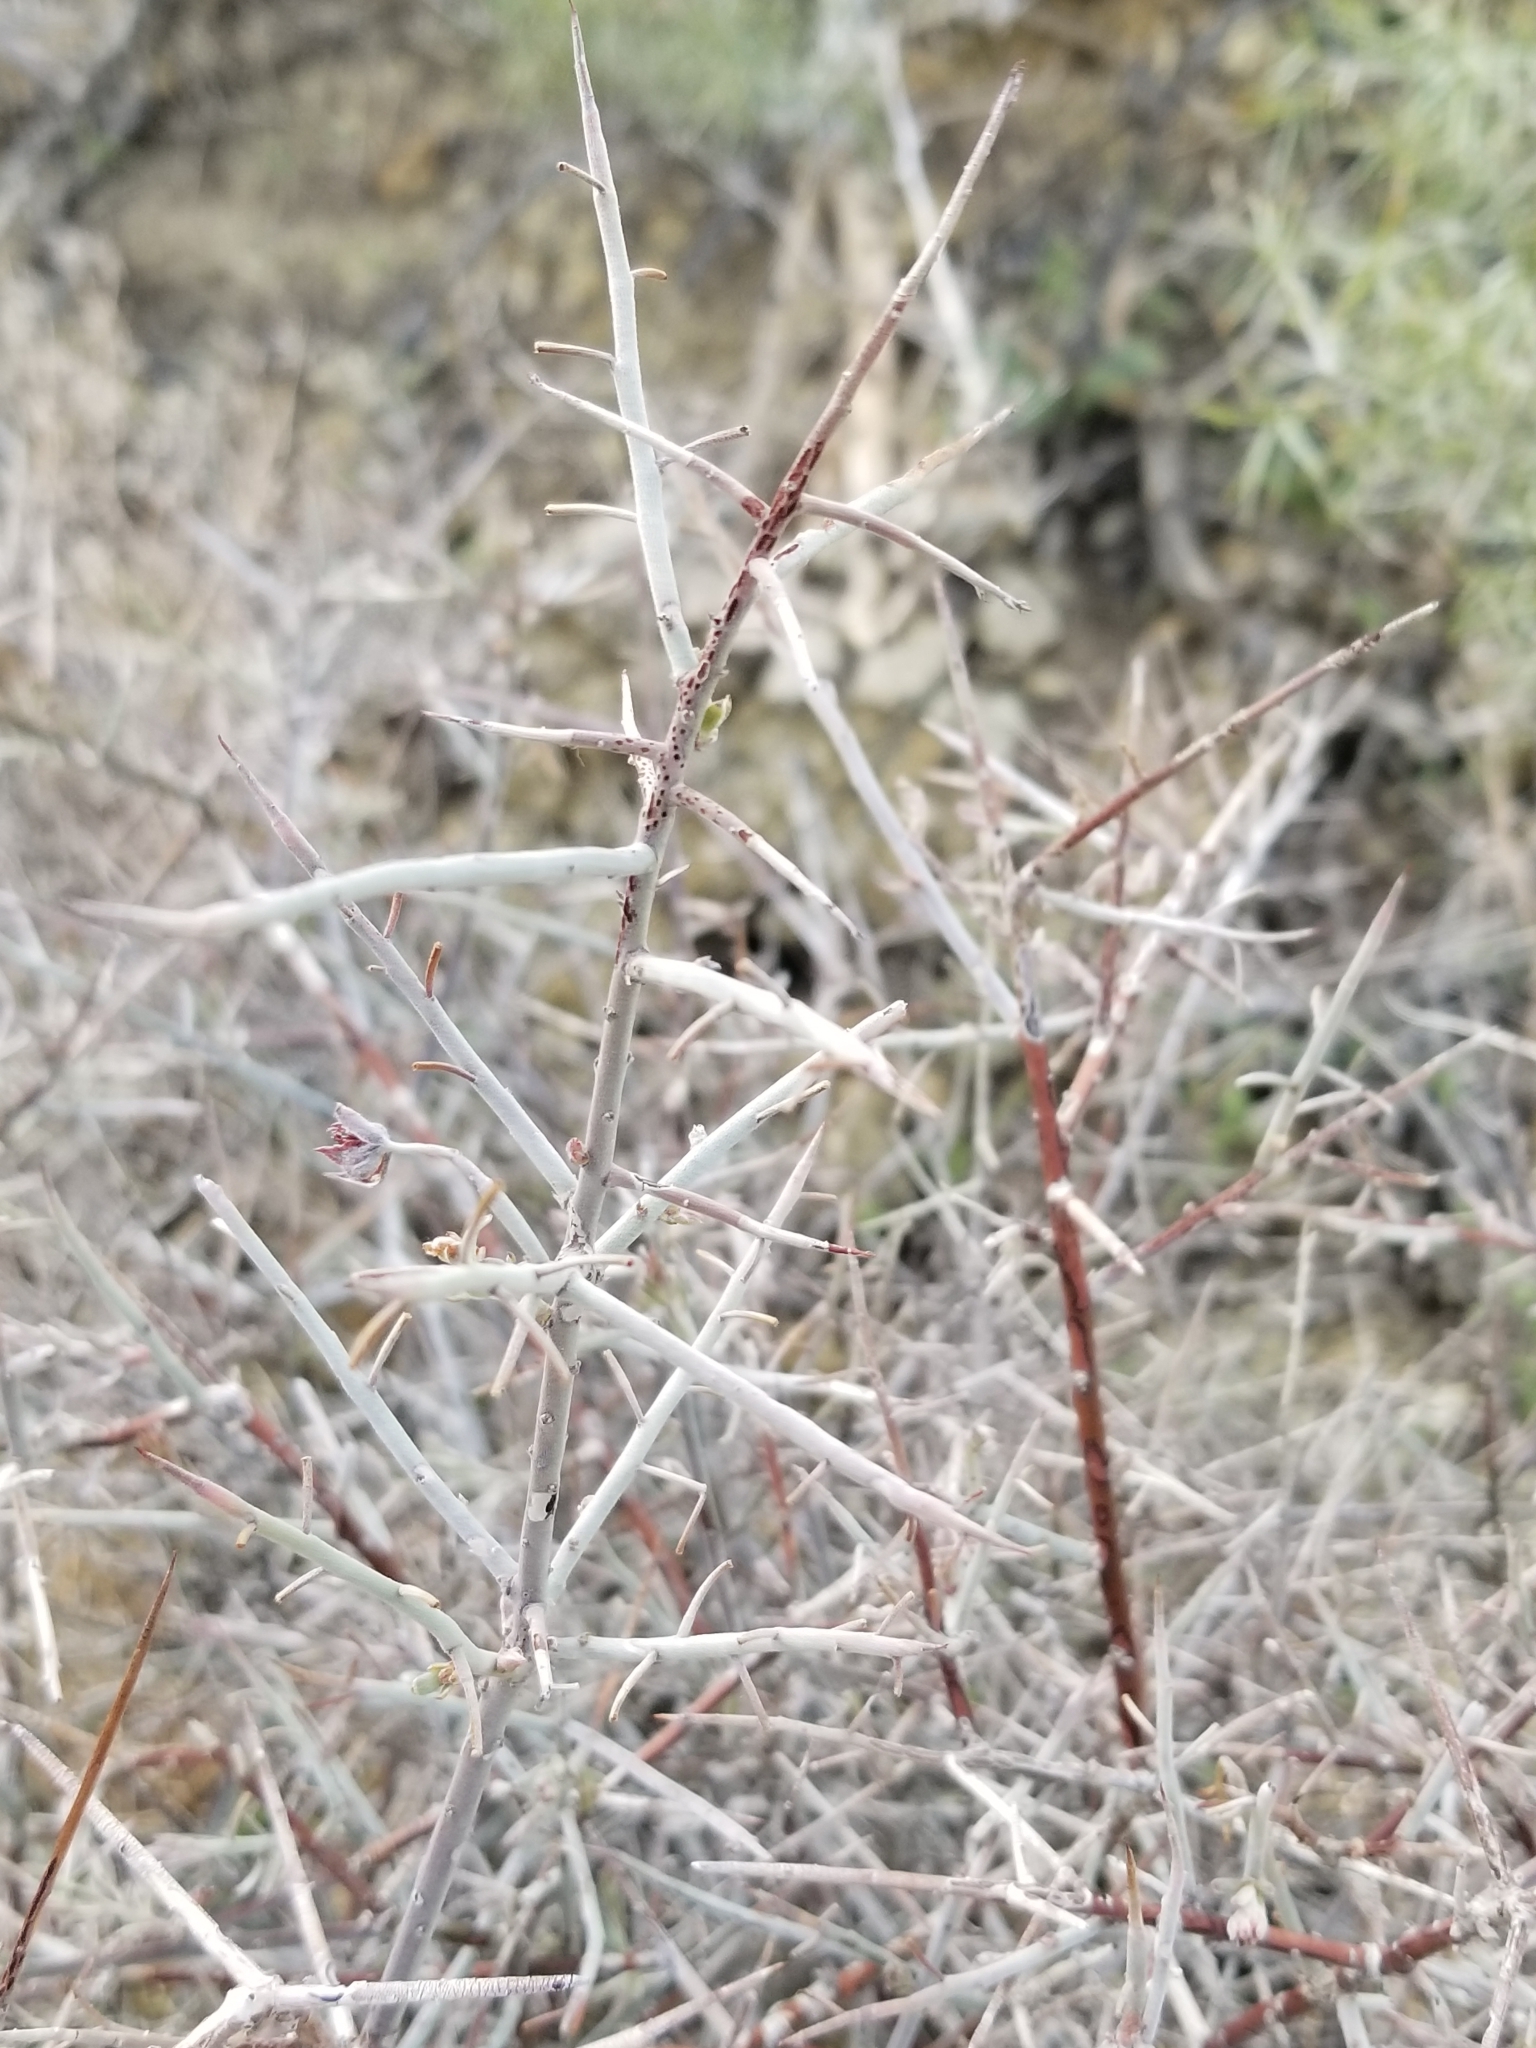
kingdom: Plantae
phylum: Tracheophyta
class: Magnoliopsida
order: Zygophyllales
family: Krameriaceae
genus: Krameria
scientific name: Krameria bicolor
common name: White ratany
